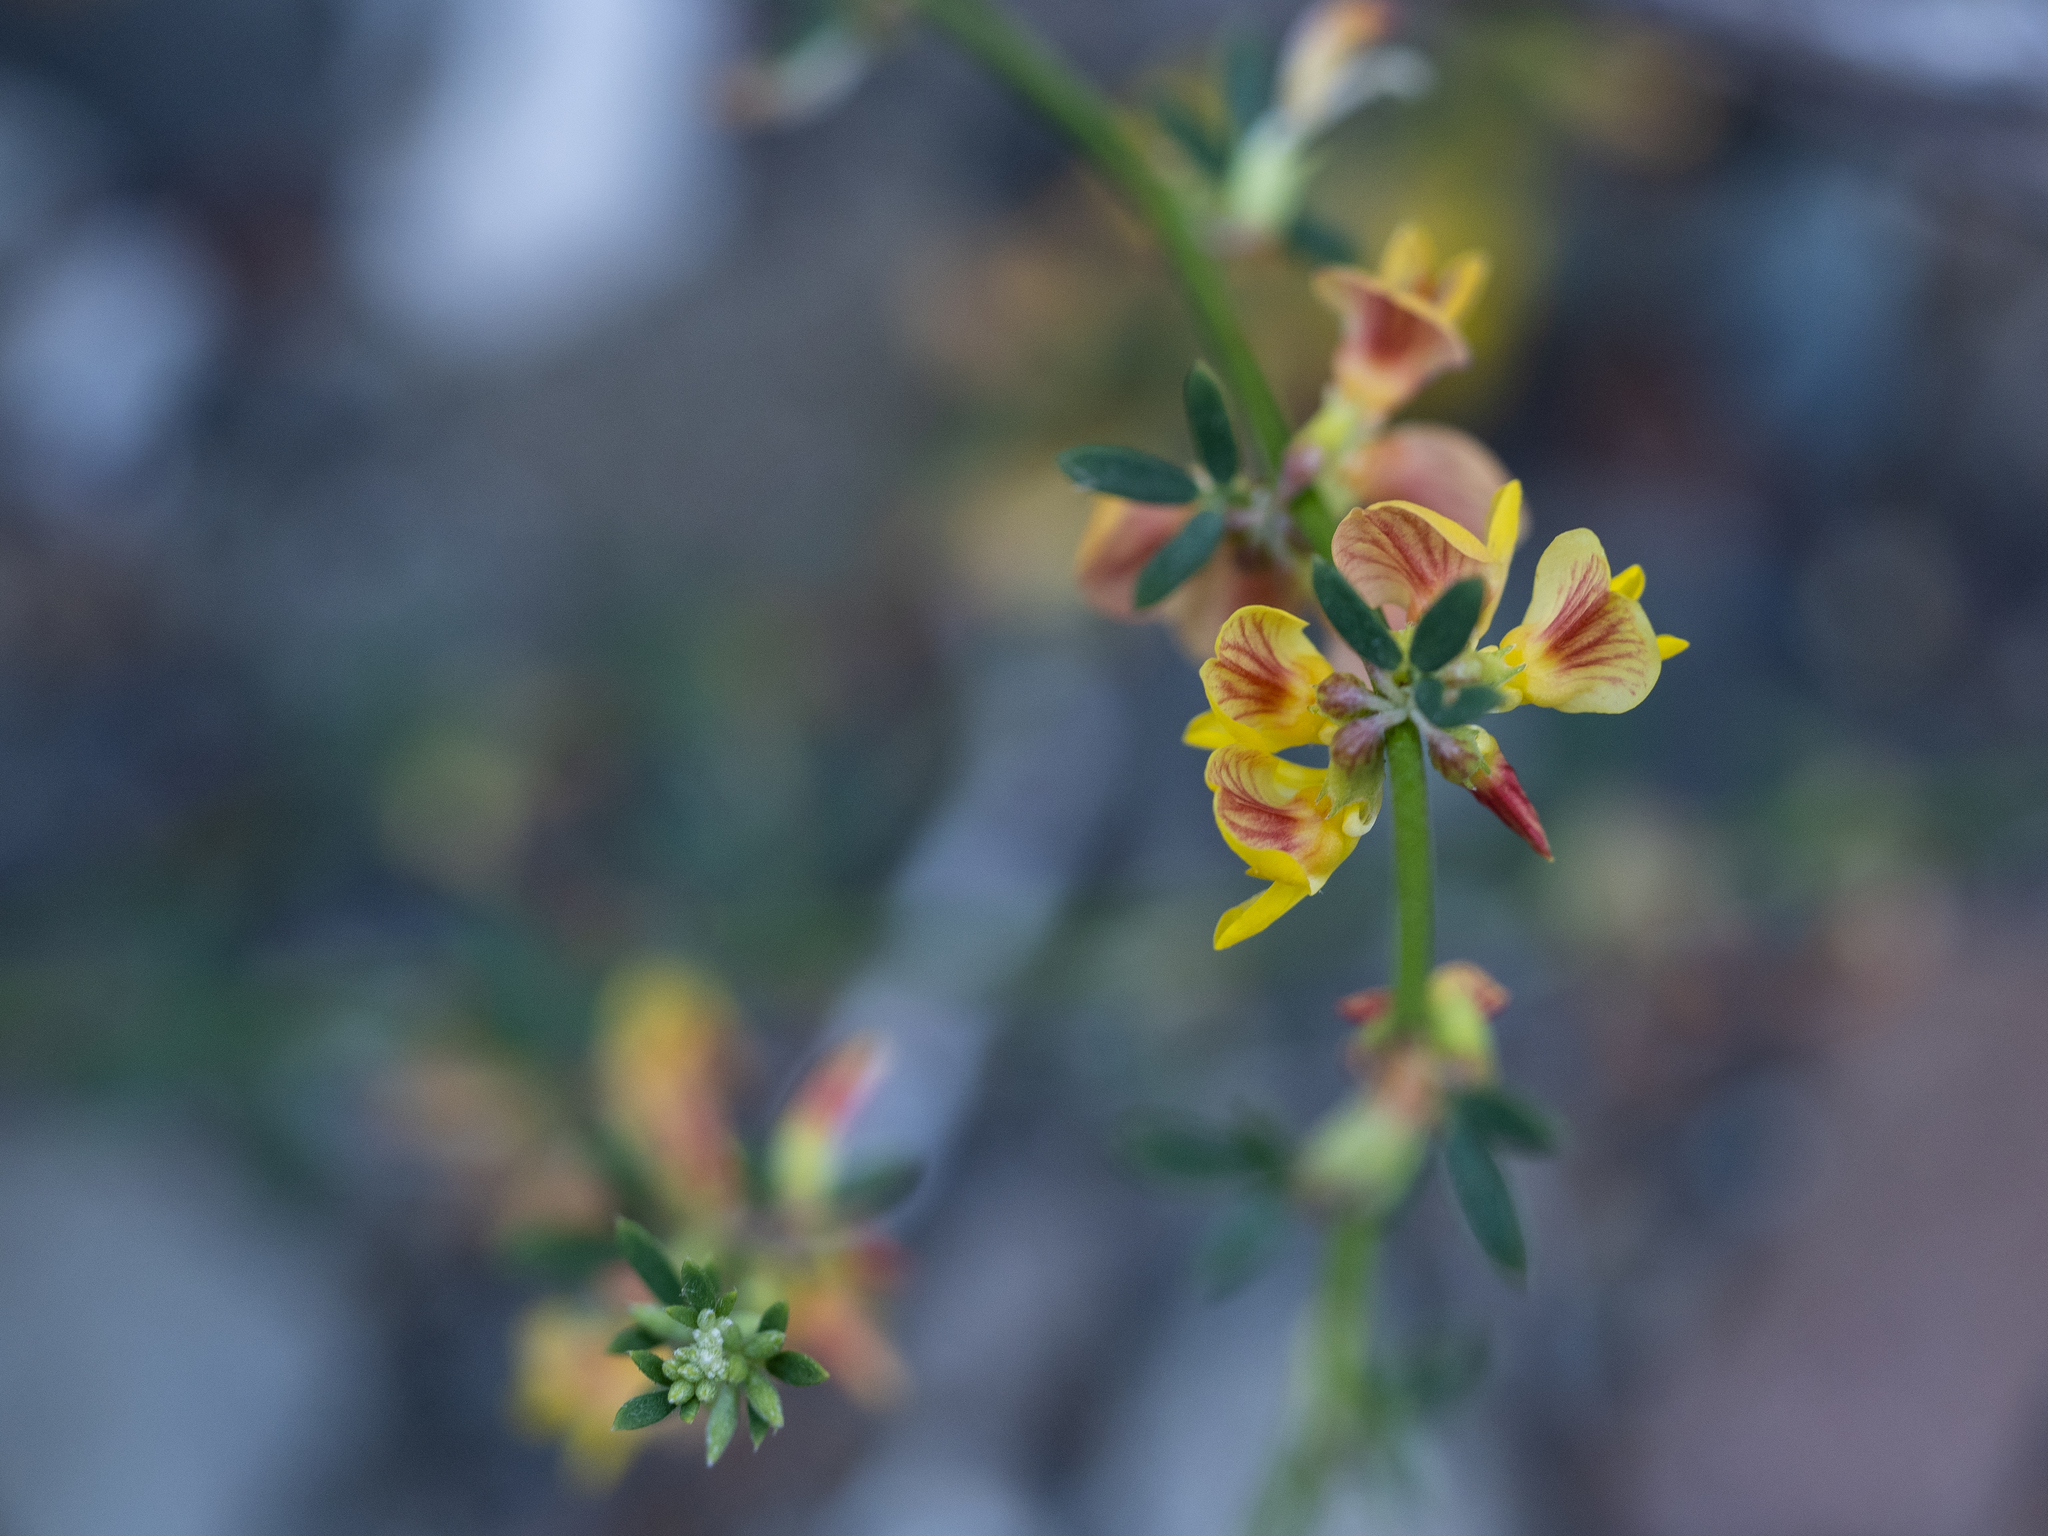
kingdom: Plantae
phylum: Tracheophyta
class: Magnoliopsida
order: Fabales
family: Fabaceae
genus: Acmispon
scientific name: Acmispon glaber
